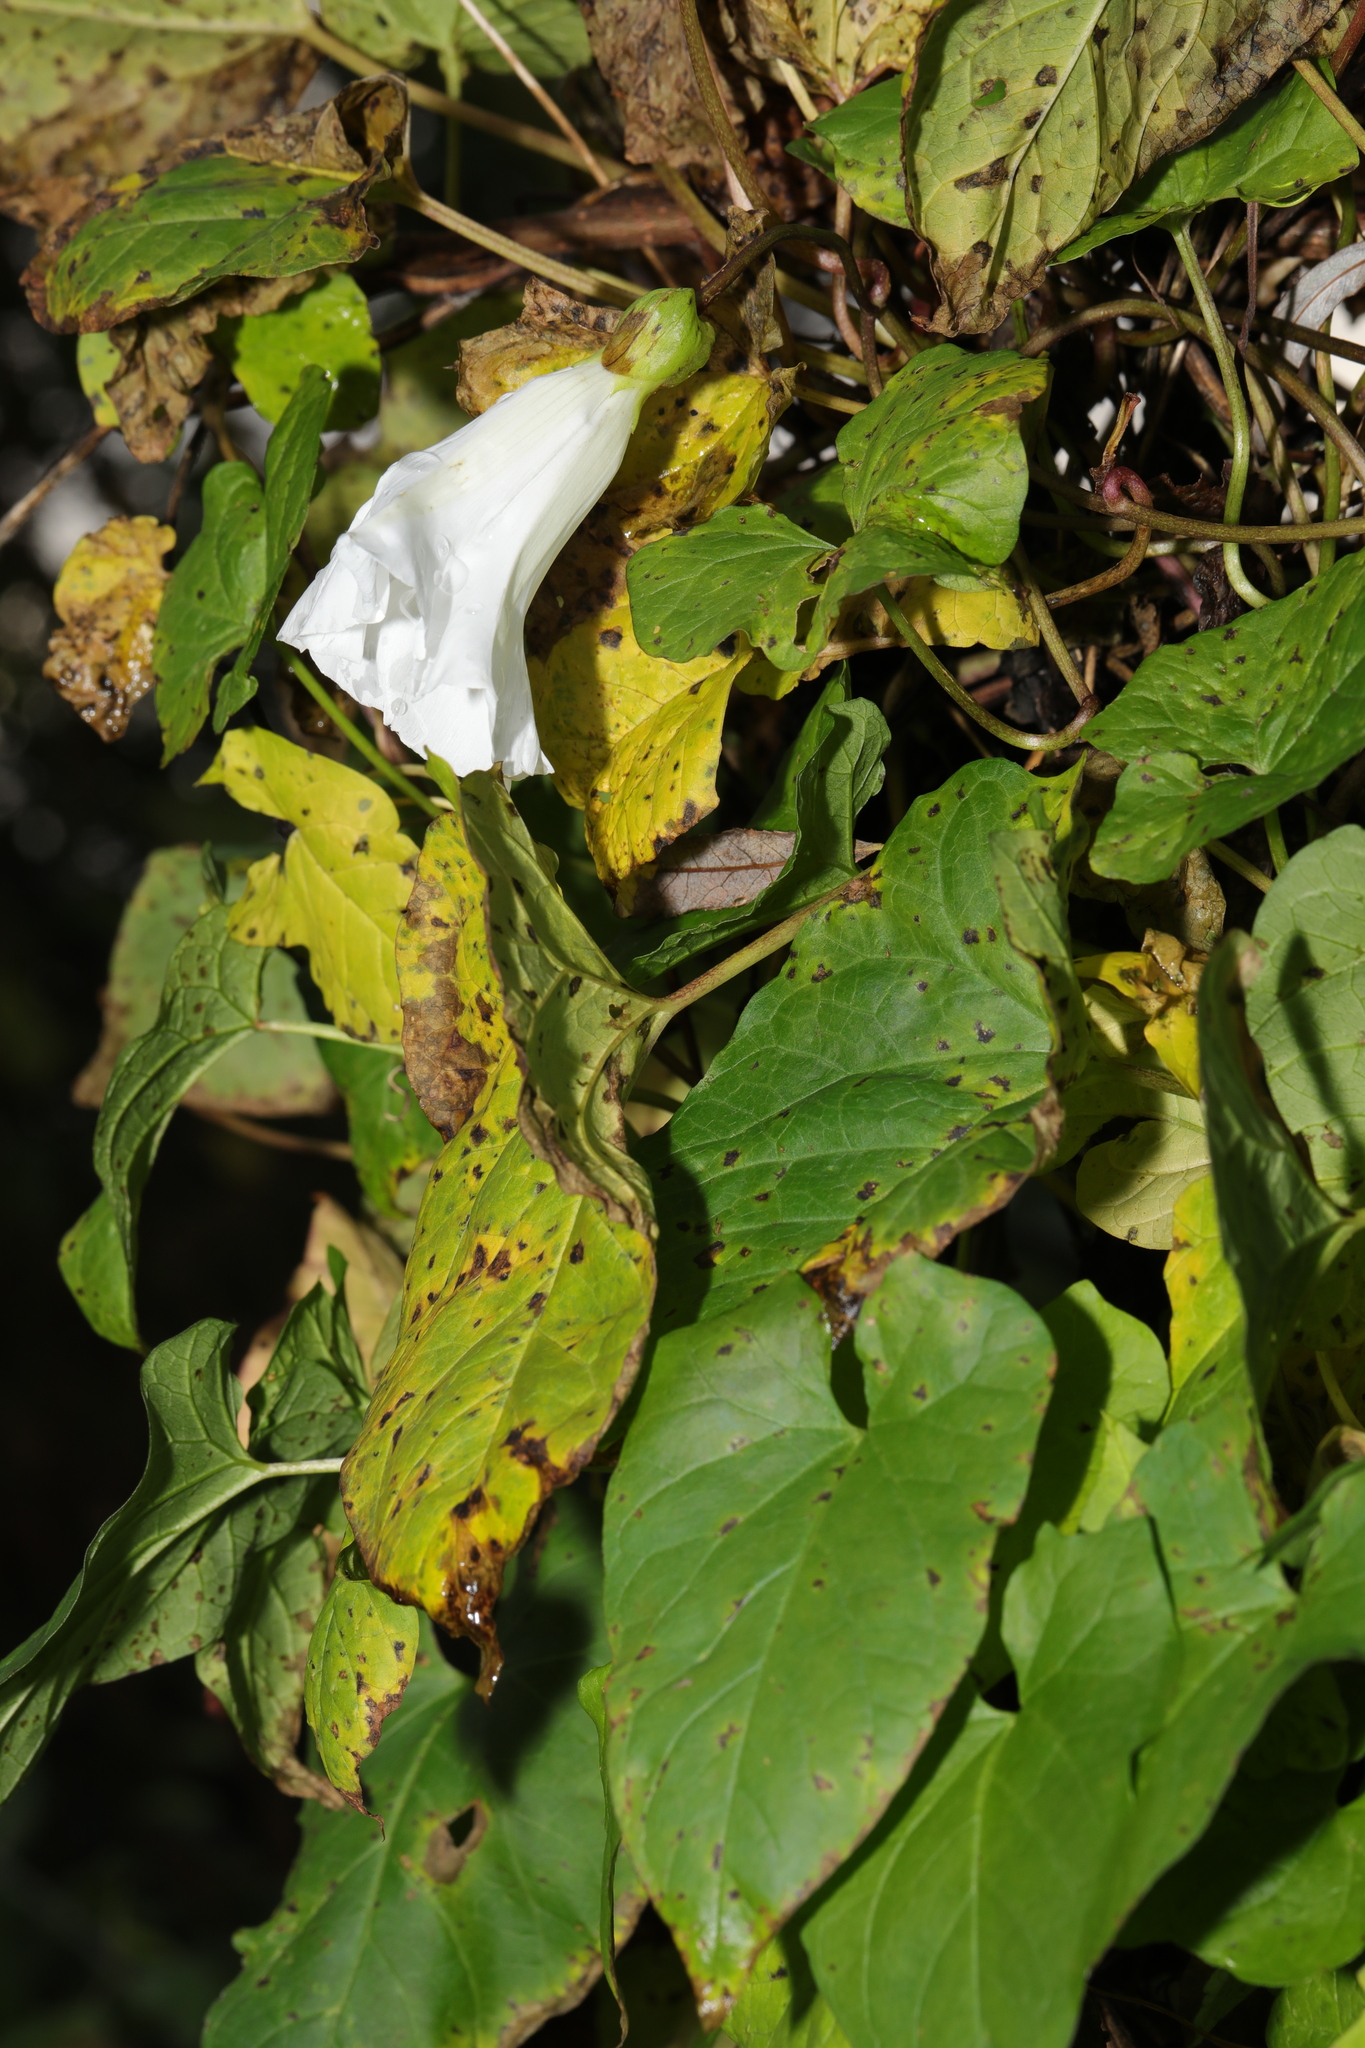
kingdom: Plantae
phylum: Tracheophyta
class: Magnoliopsida
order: Solanales
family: Convolvulaceae
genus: Calystegia
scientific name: Calystegia silvatica
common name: Large bindweed
